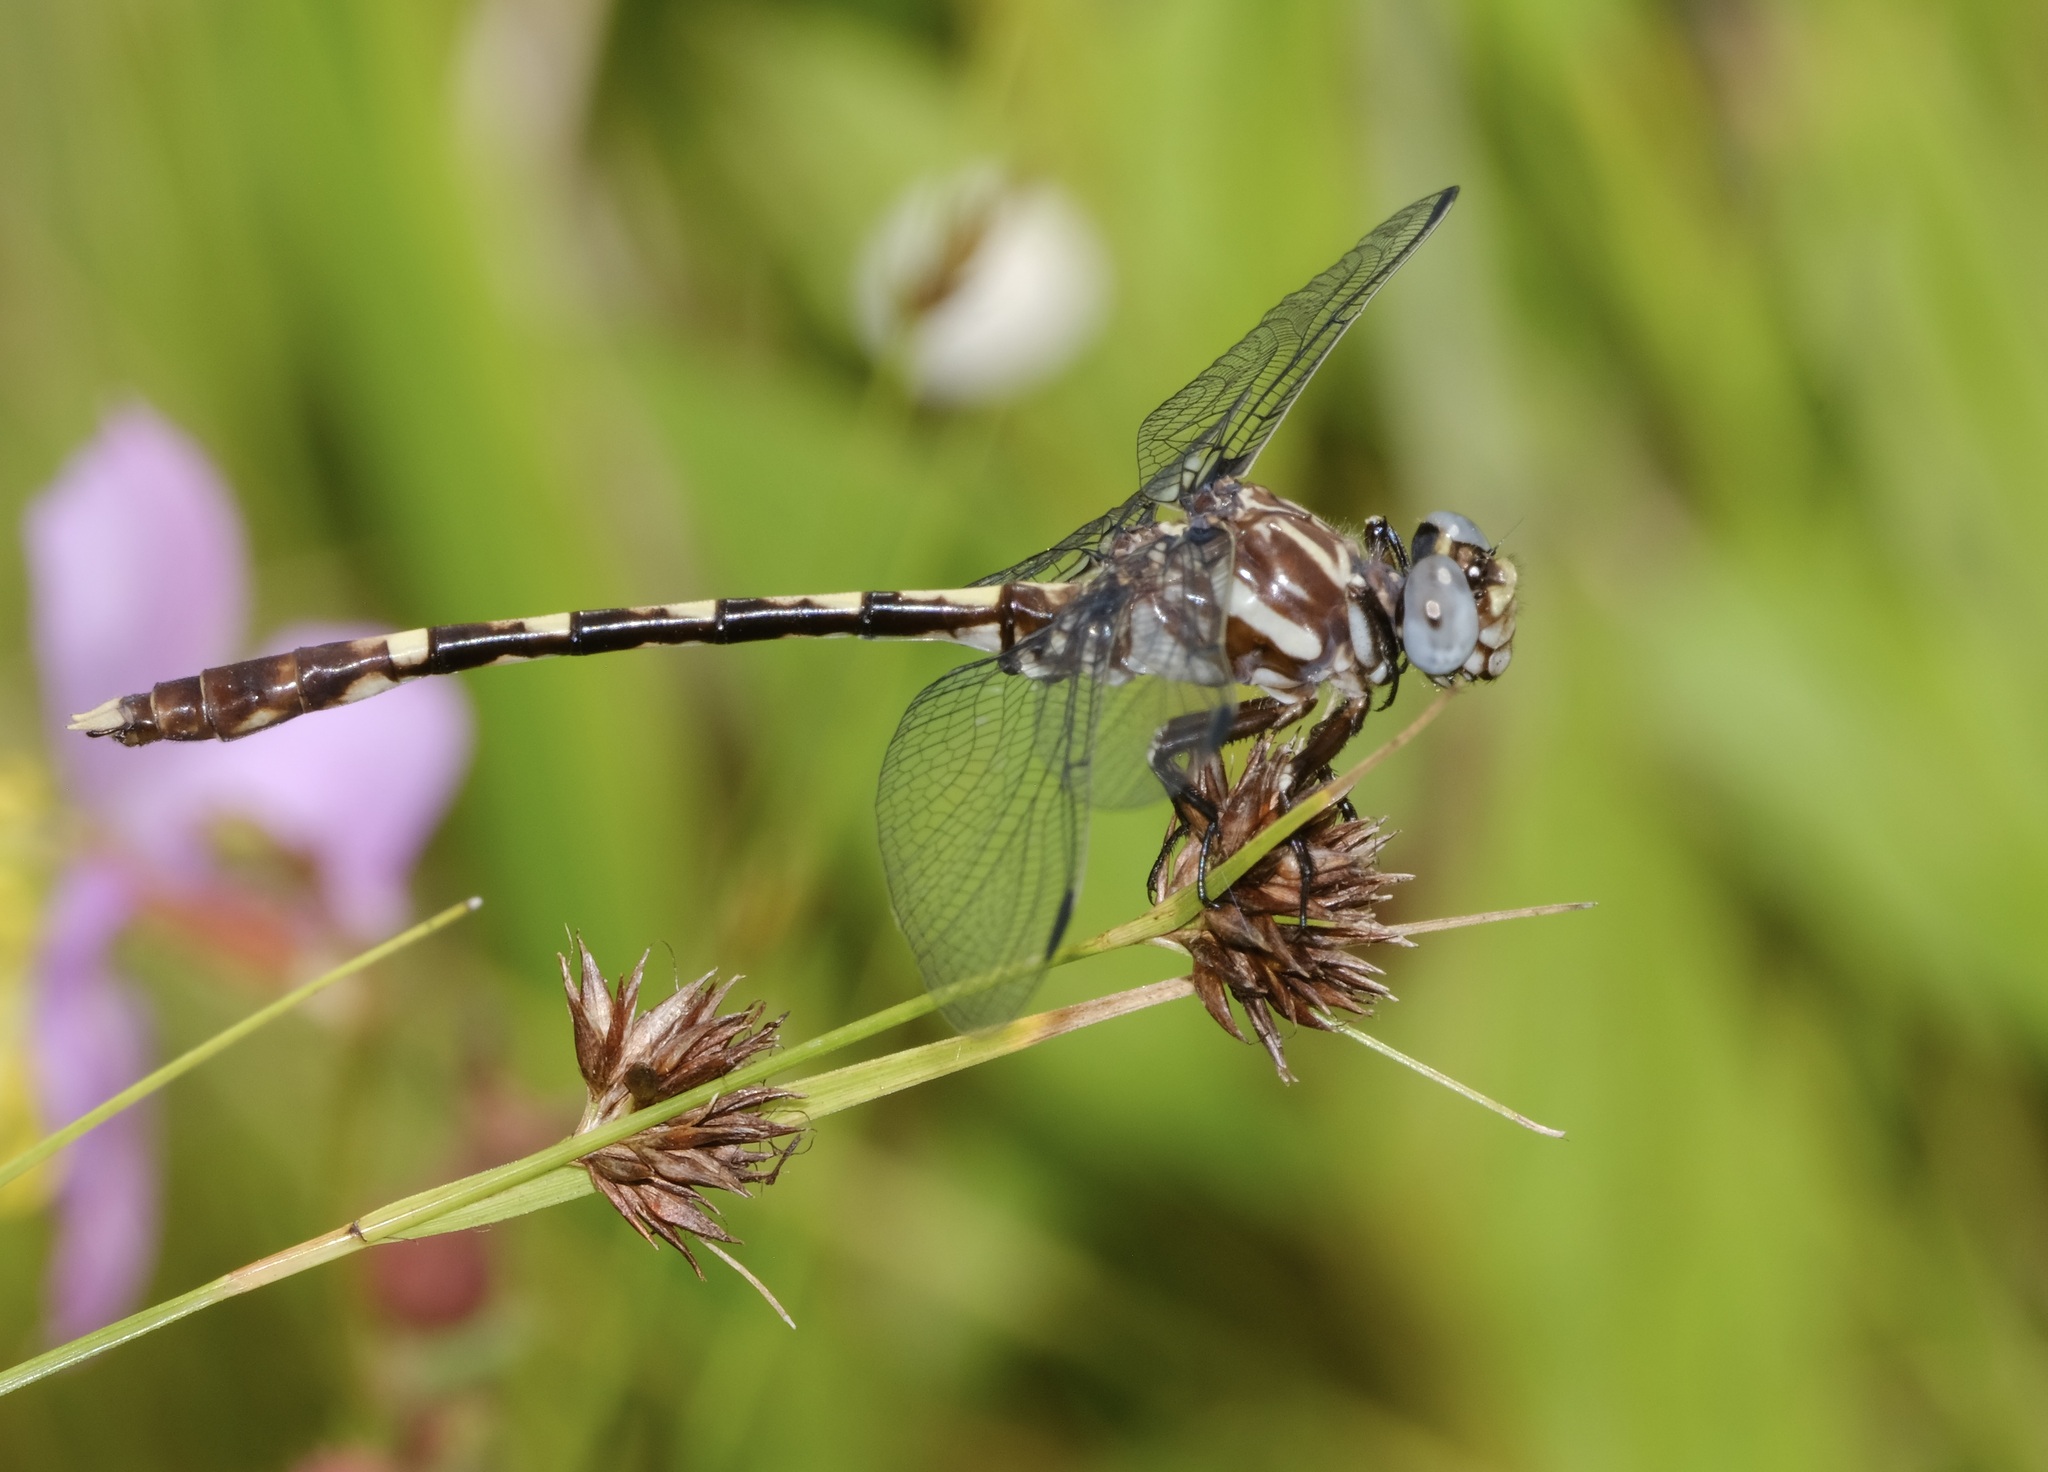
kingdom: Animalia
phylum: Arthropoda
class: Insecta
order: Odonata
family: Gomphidae
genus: Progomphus
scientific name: Progomphus obscurus
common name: Common sanddragon
